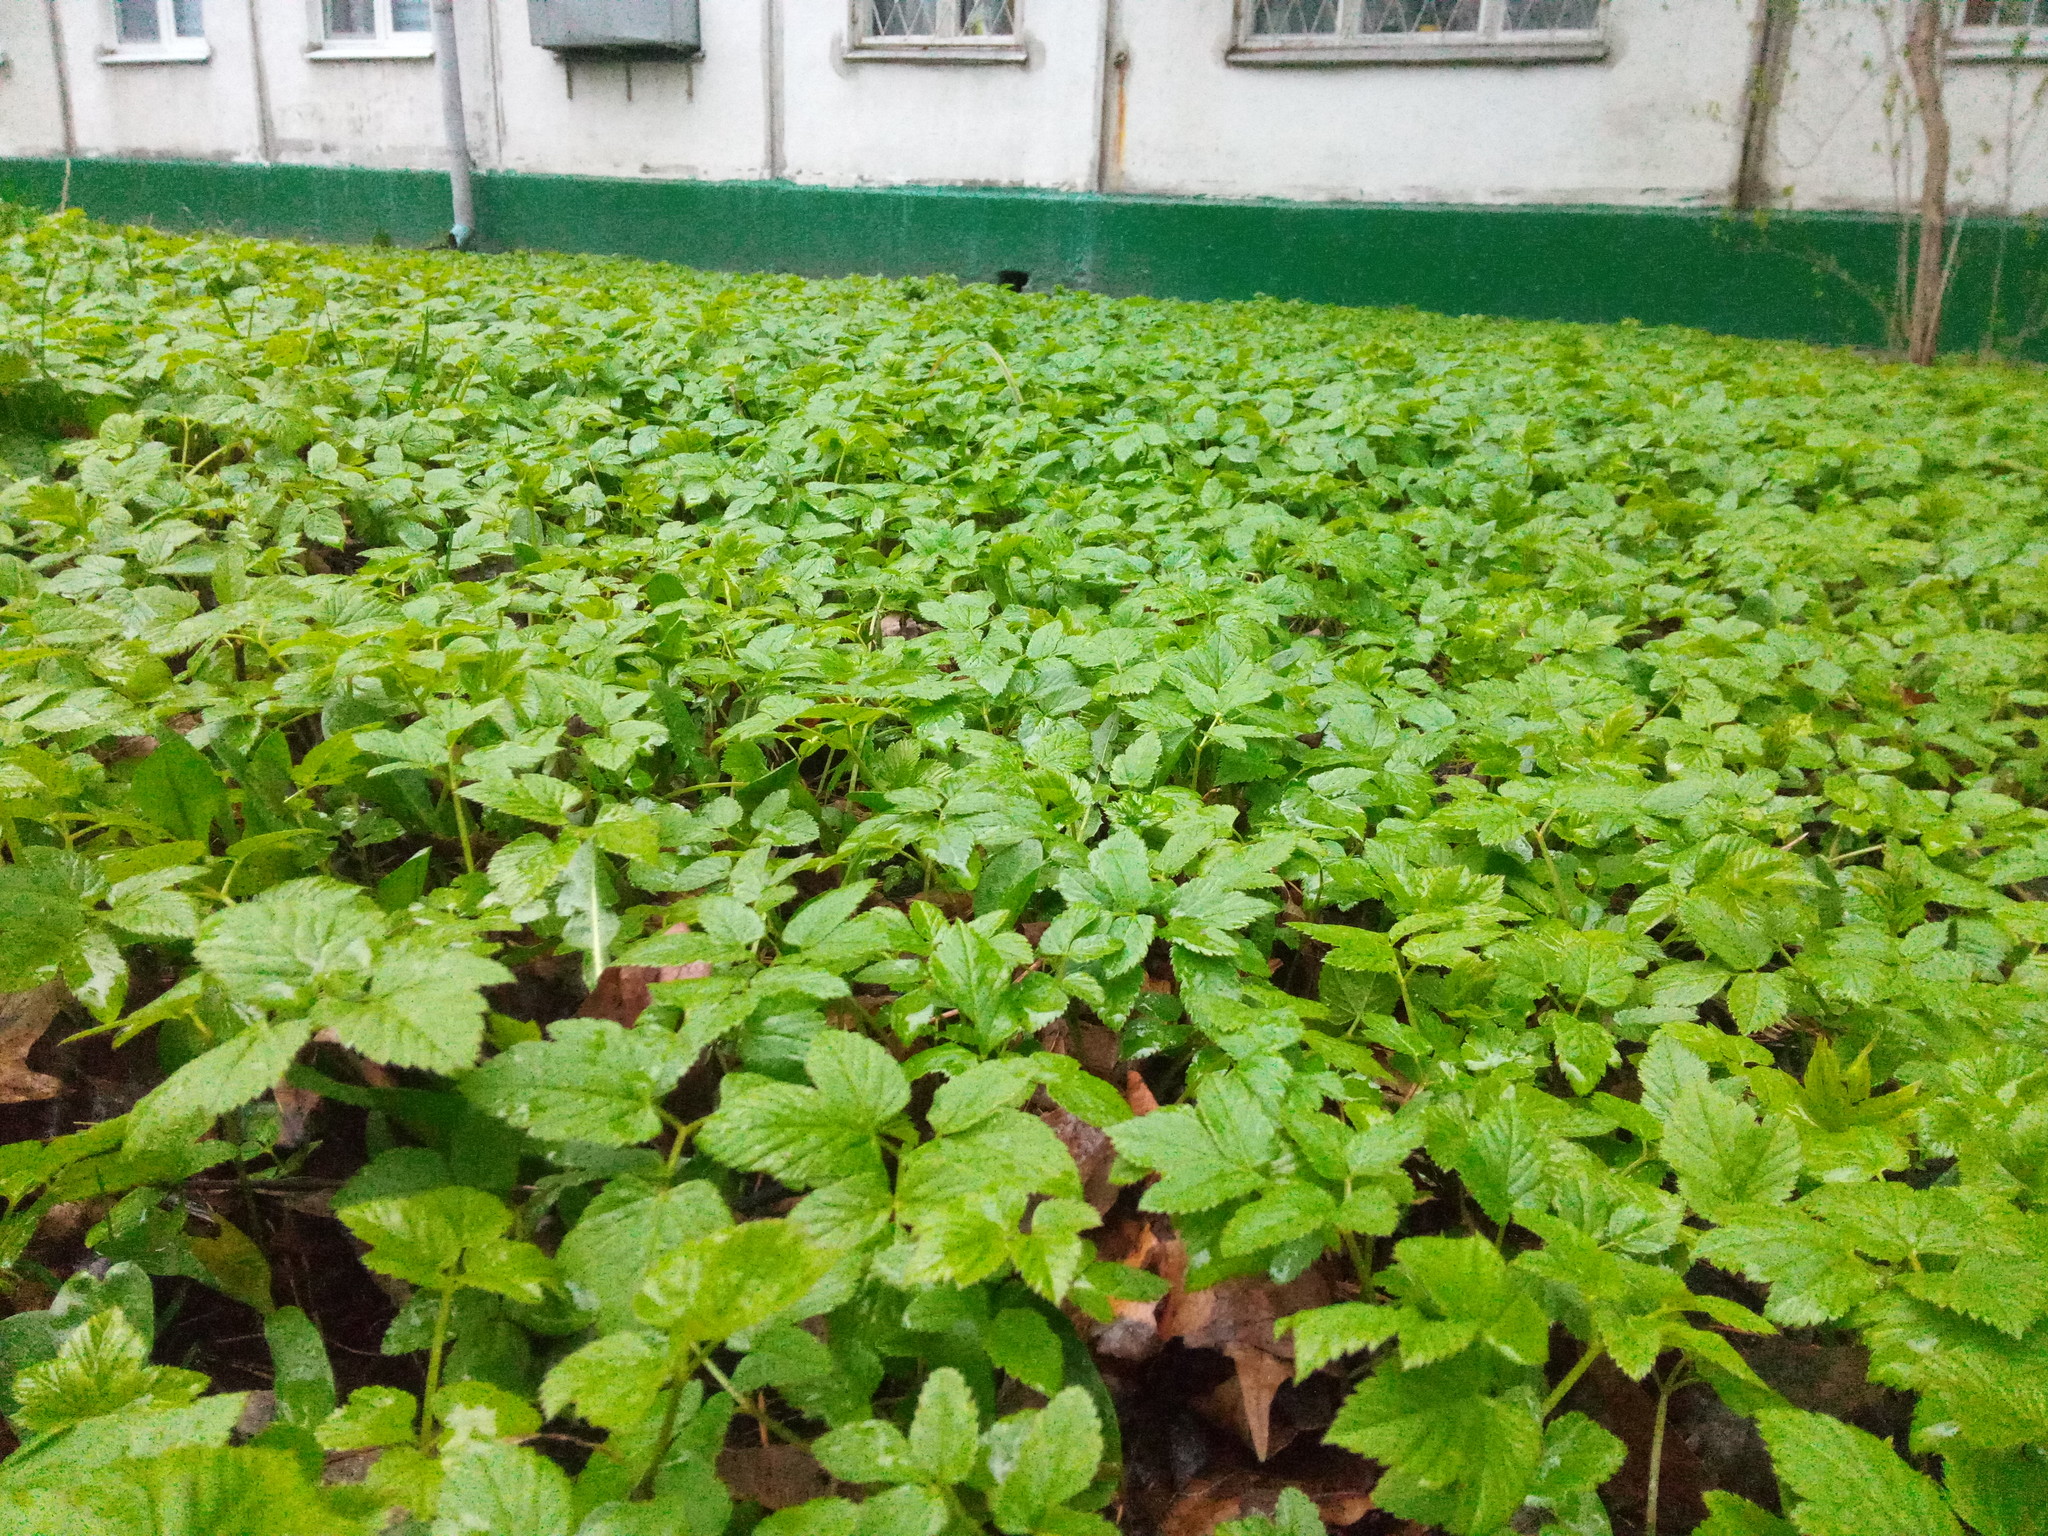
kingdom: Plantae
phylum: Tracheophyta
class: Magnoliopsida
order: Apiales
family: Apiaceae
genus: Aegopodium
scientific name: Aegopodium podagraria
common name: Ground-elder
